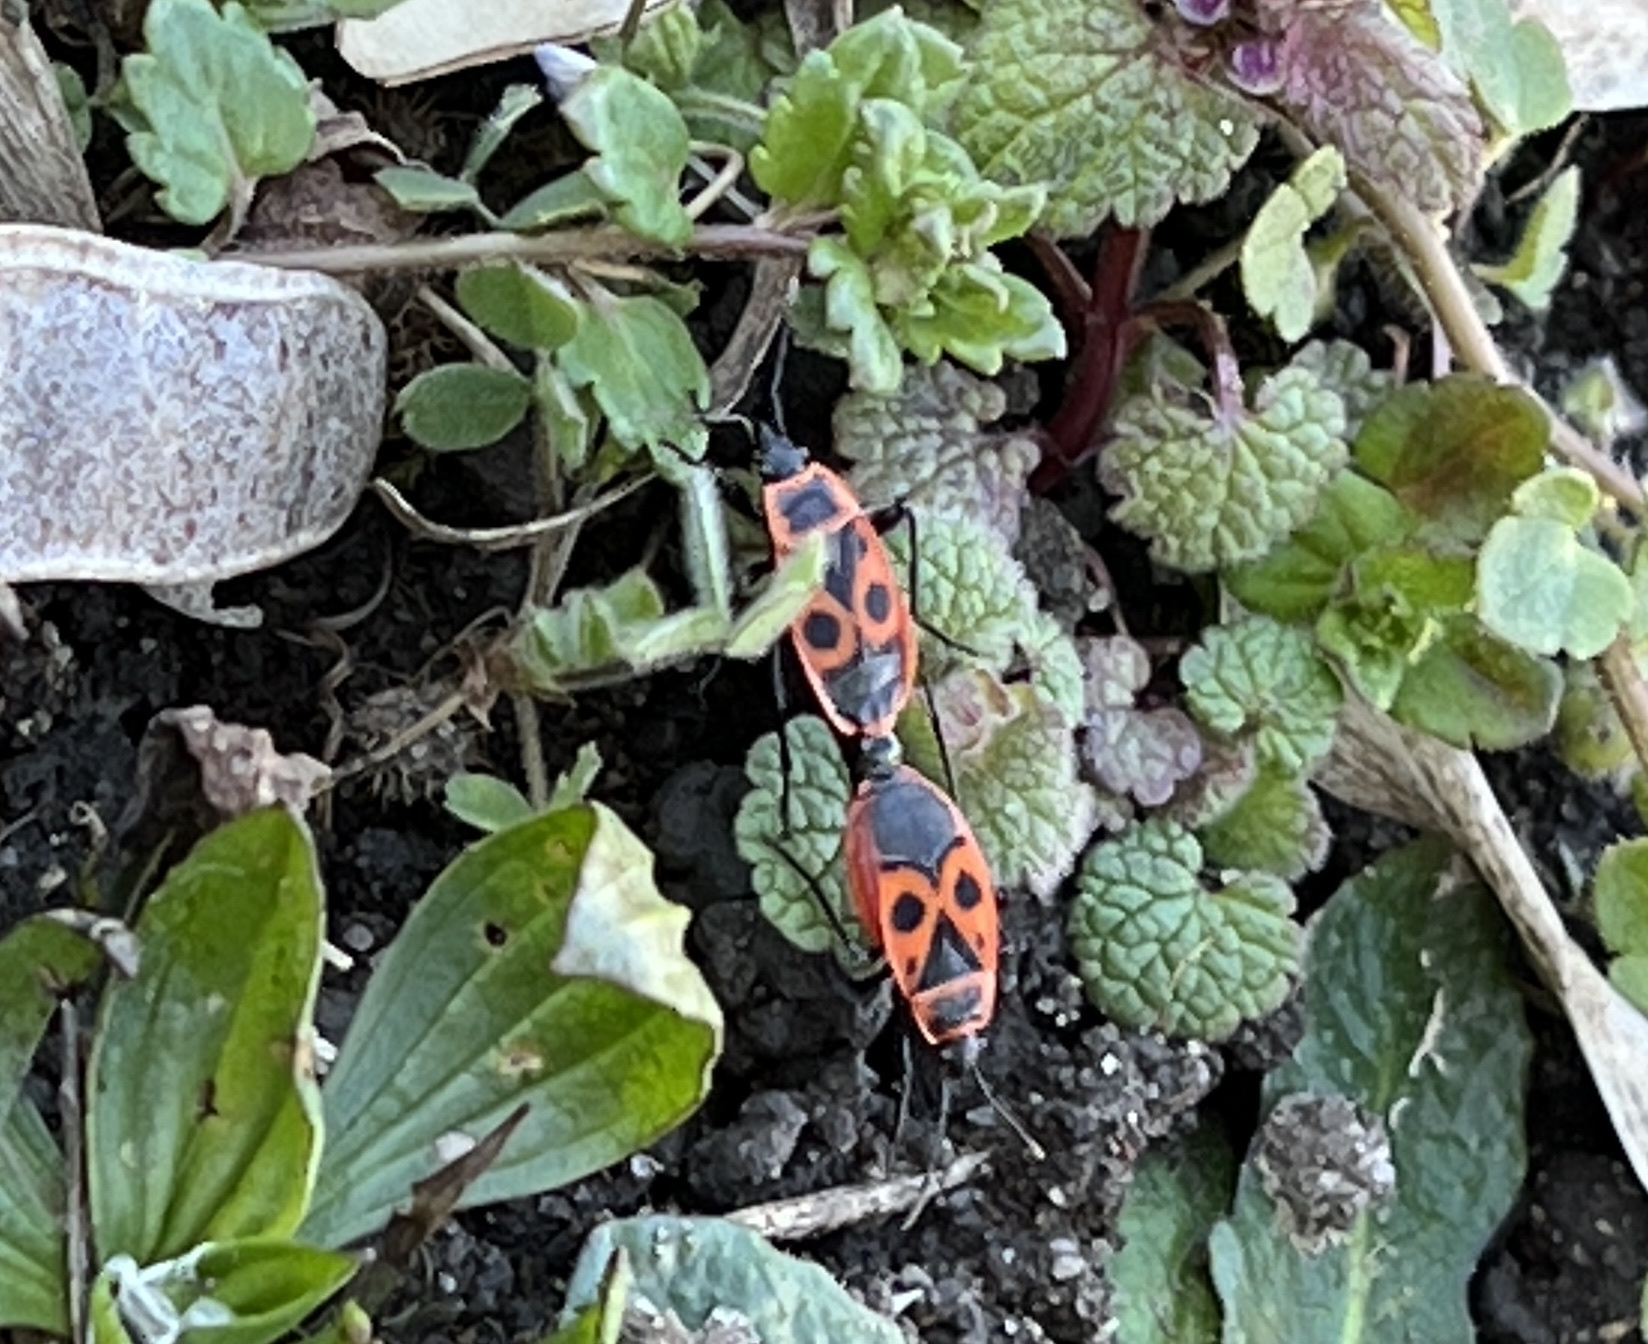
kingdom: Animalia
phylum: Arthropoda
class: Insecta
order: Hemiptera
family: Pyrrhocoridae
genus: Pyrrhocoris
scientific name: Pyrrhocoris apterus
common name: Firebug
